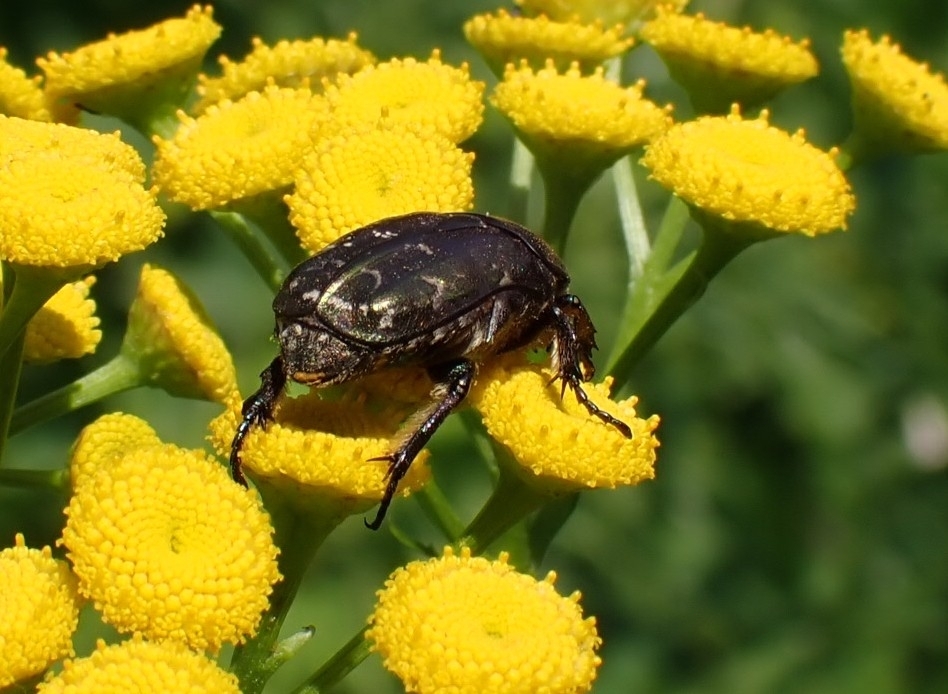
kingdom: Animalia
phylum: Arthropoda
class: Insecta
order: Coleoptera
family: Scarabaeidae
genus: Protaetia
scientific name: Protaetia cuprea
